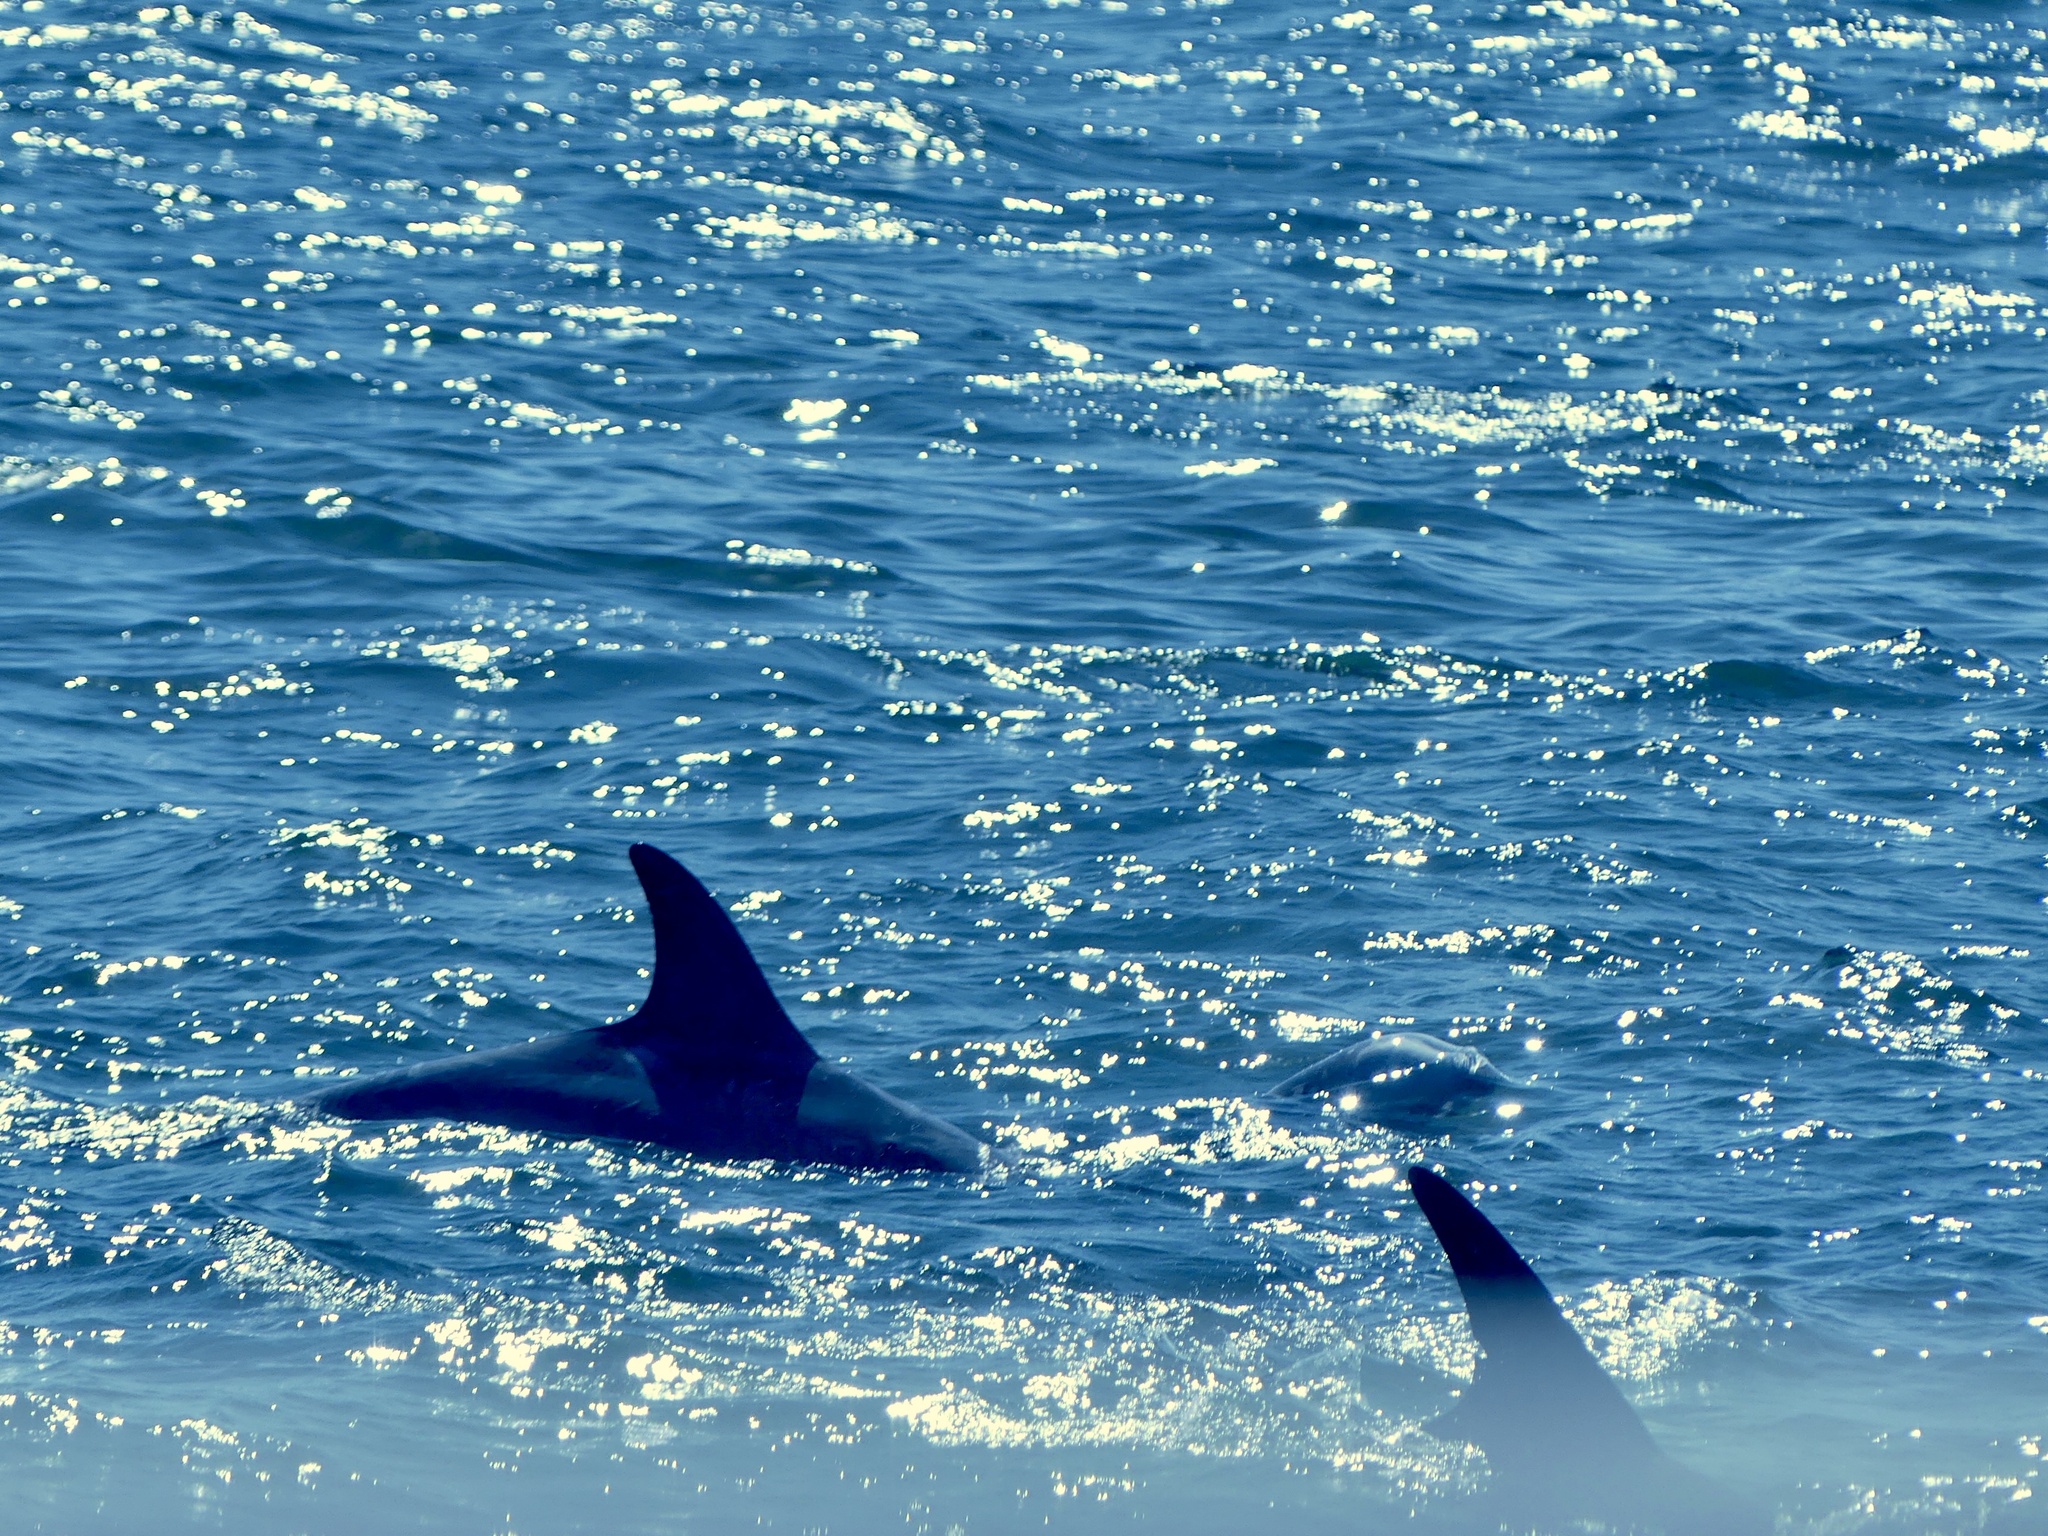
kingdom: Animalia
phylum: Chordata
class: Mammalia
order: Cetacea
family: Delphinidae
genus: Grampus
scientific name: Grampus griseus
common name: Risso's dolphin
